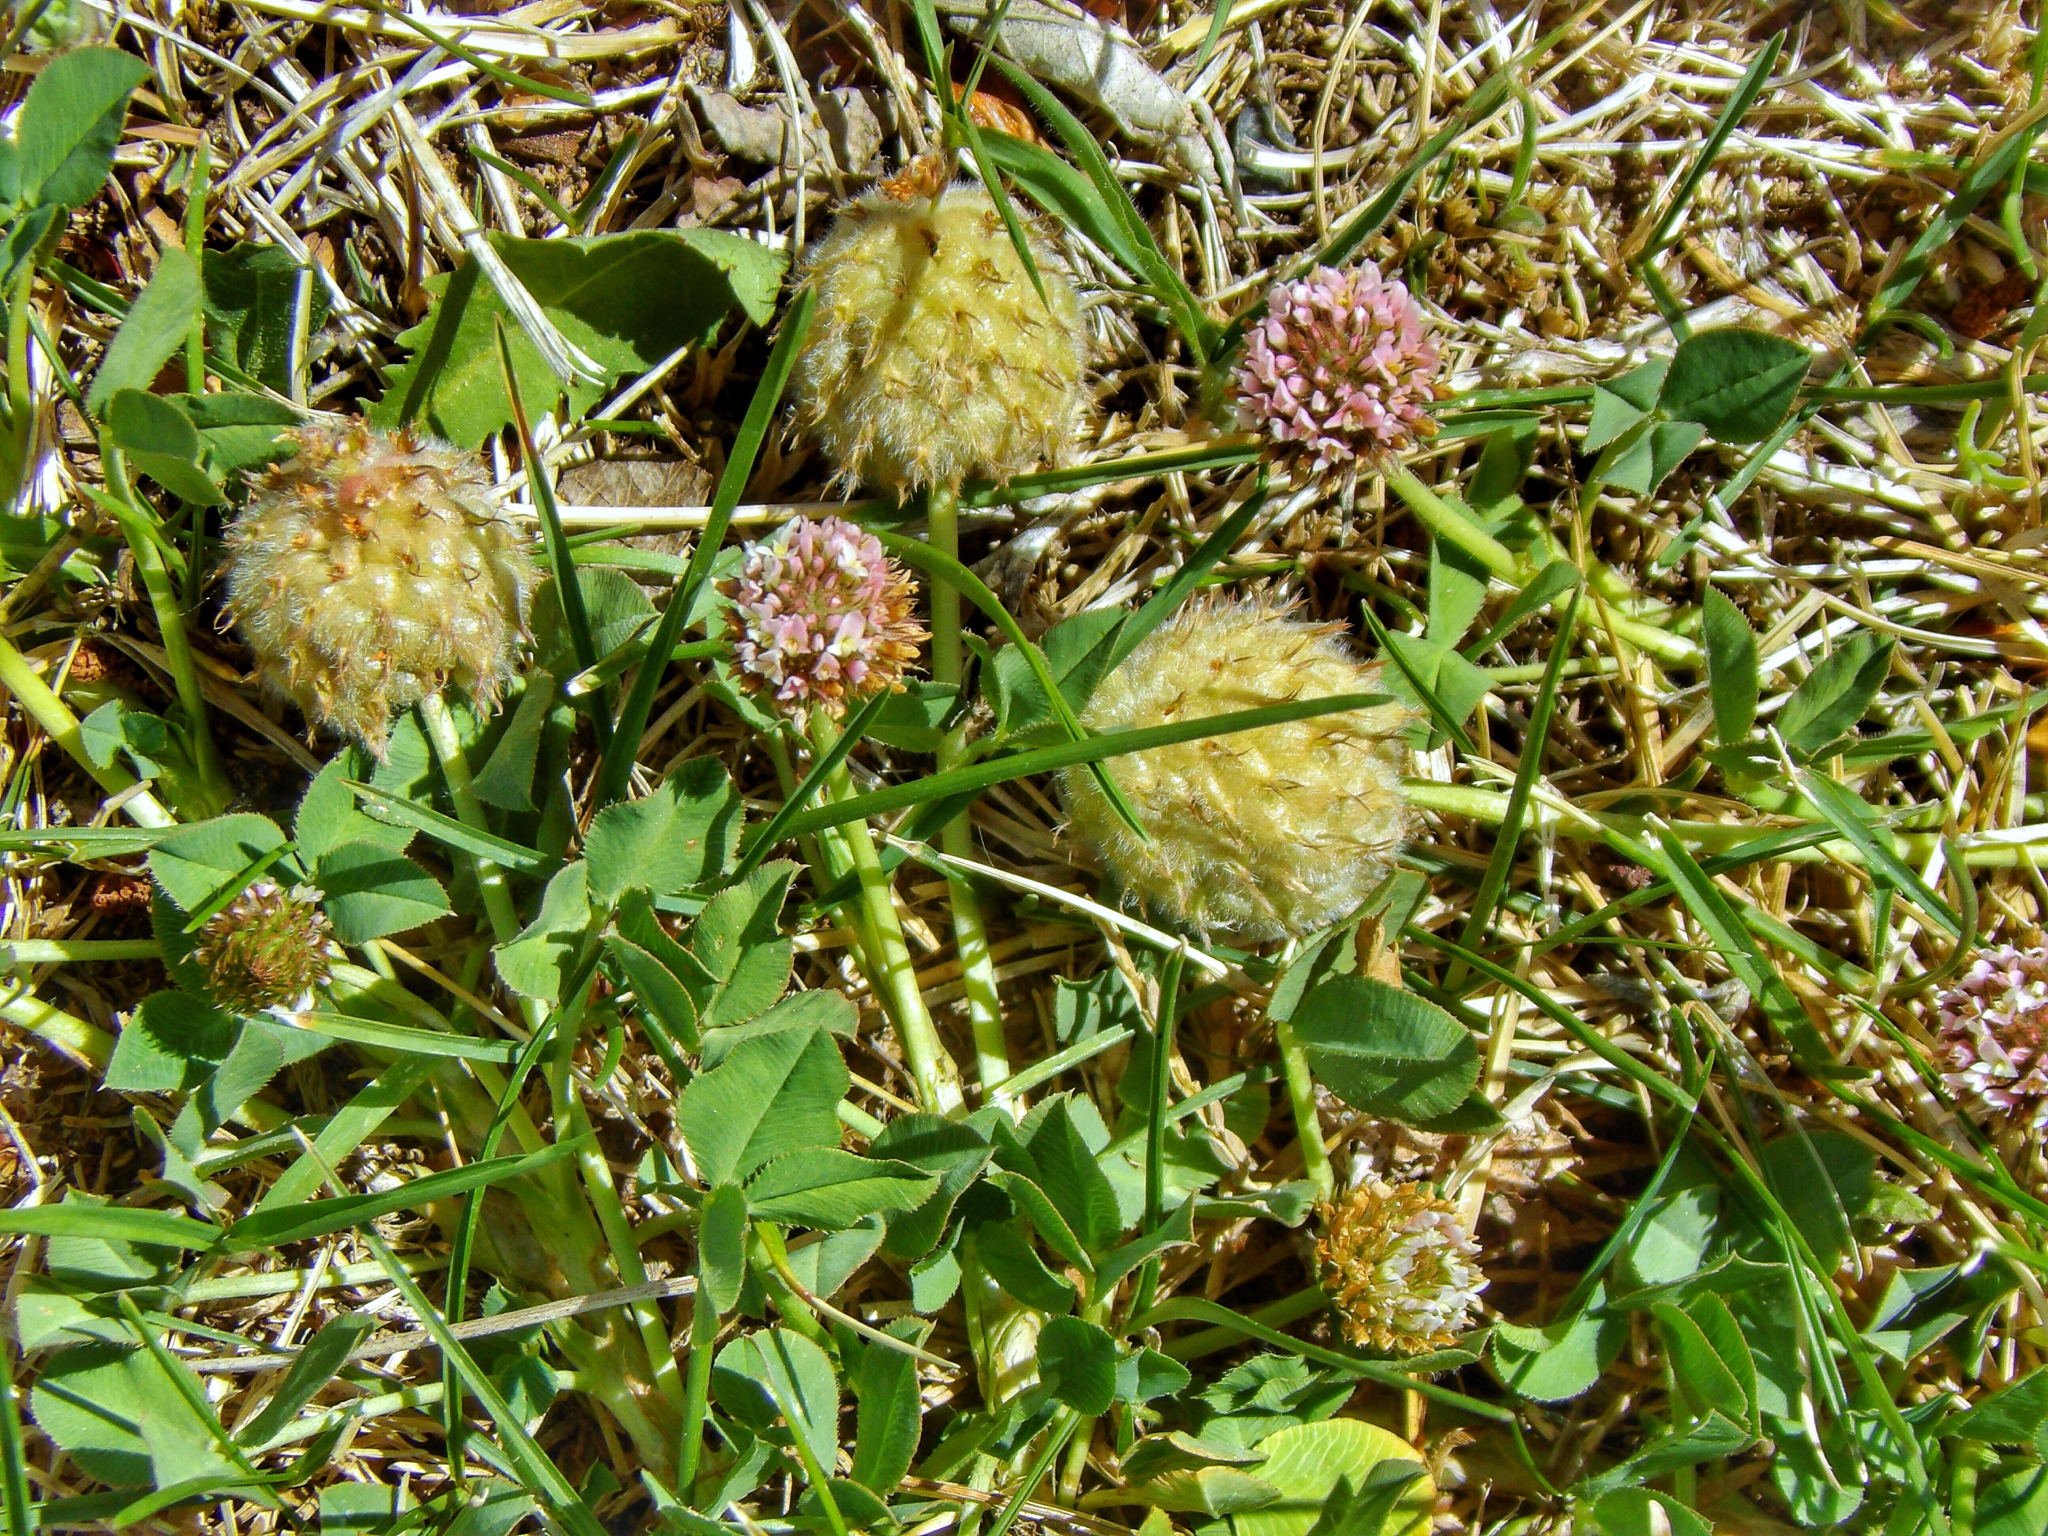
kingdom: Plantae
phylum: Tracheophyta
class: Magnoliopsida
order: Fabales
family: Fabaceae
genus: Trifolium
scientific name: Trifolium fragiferum
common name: Strawberry clover
